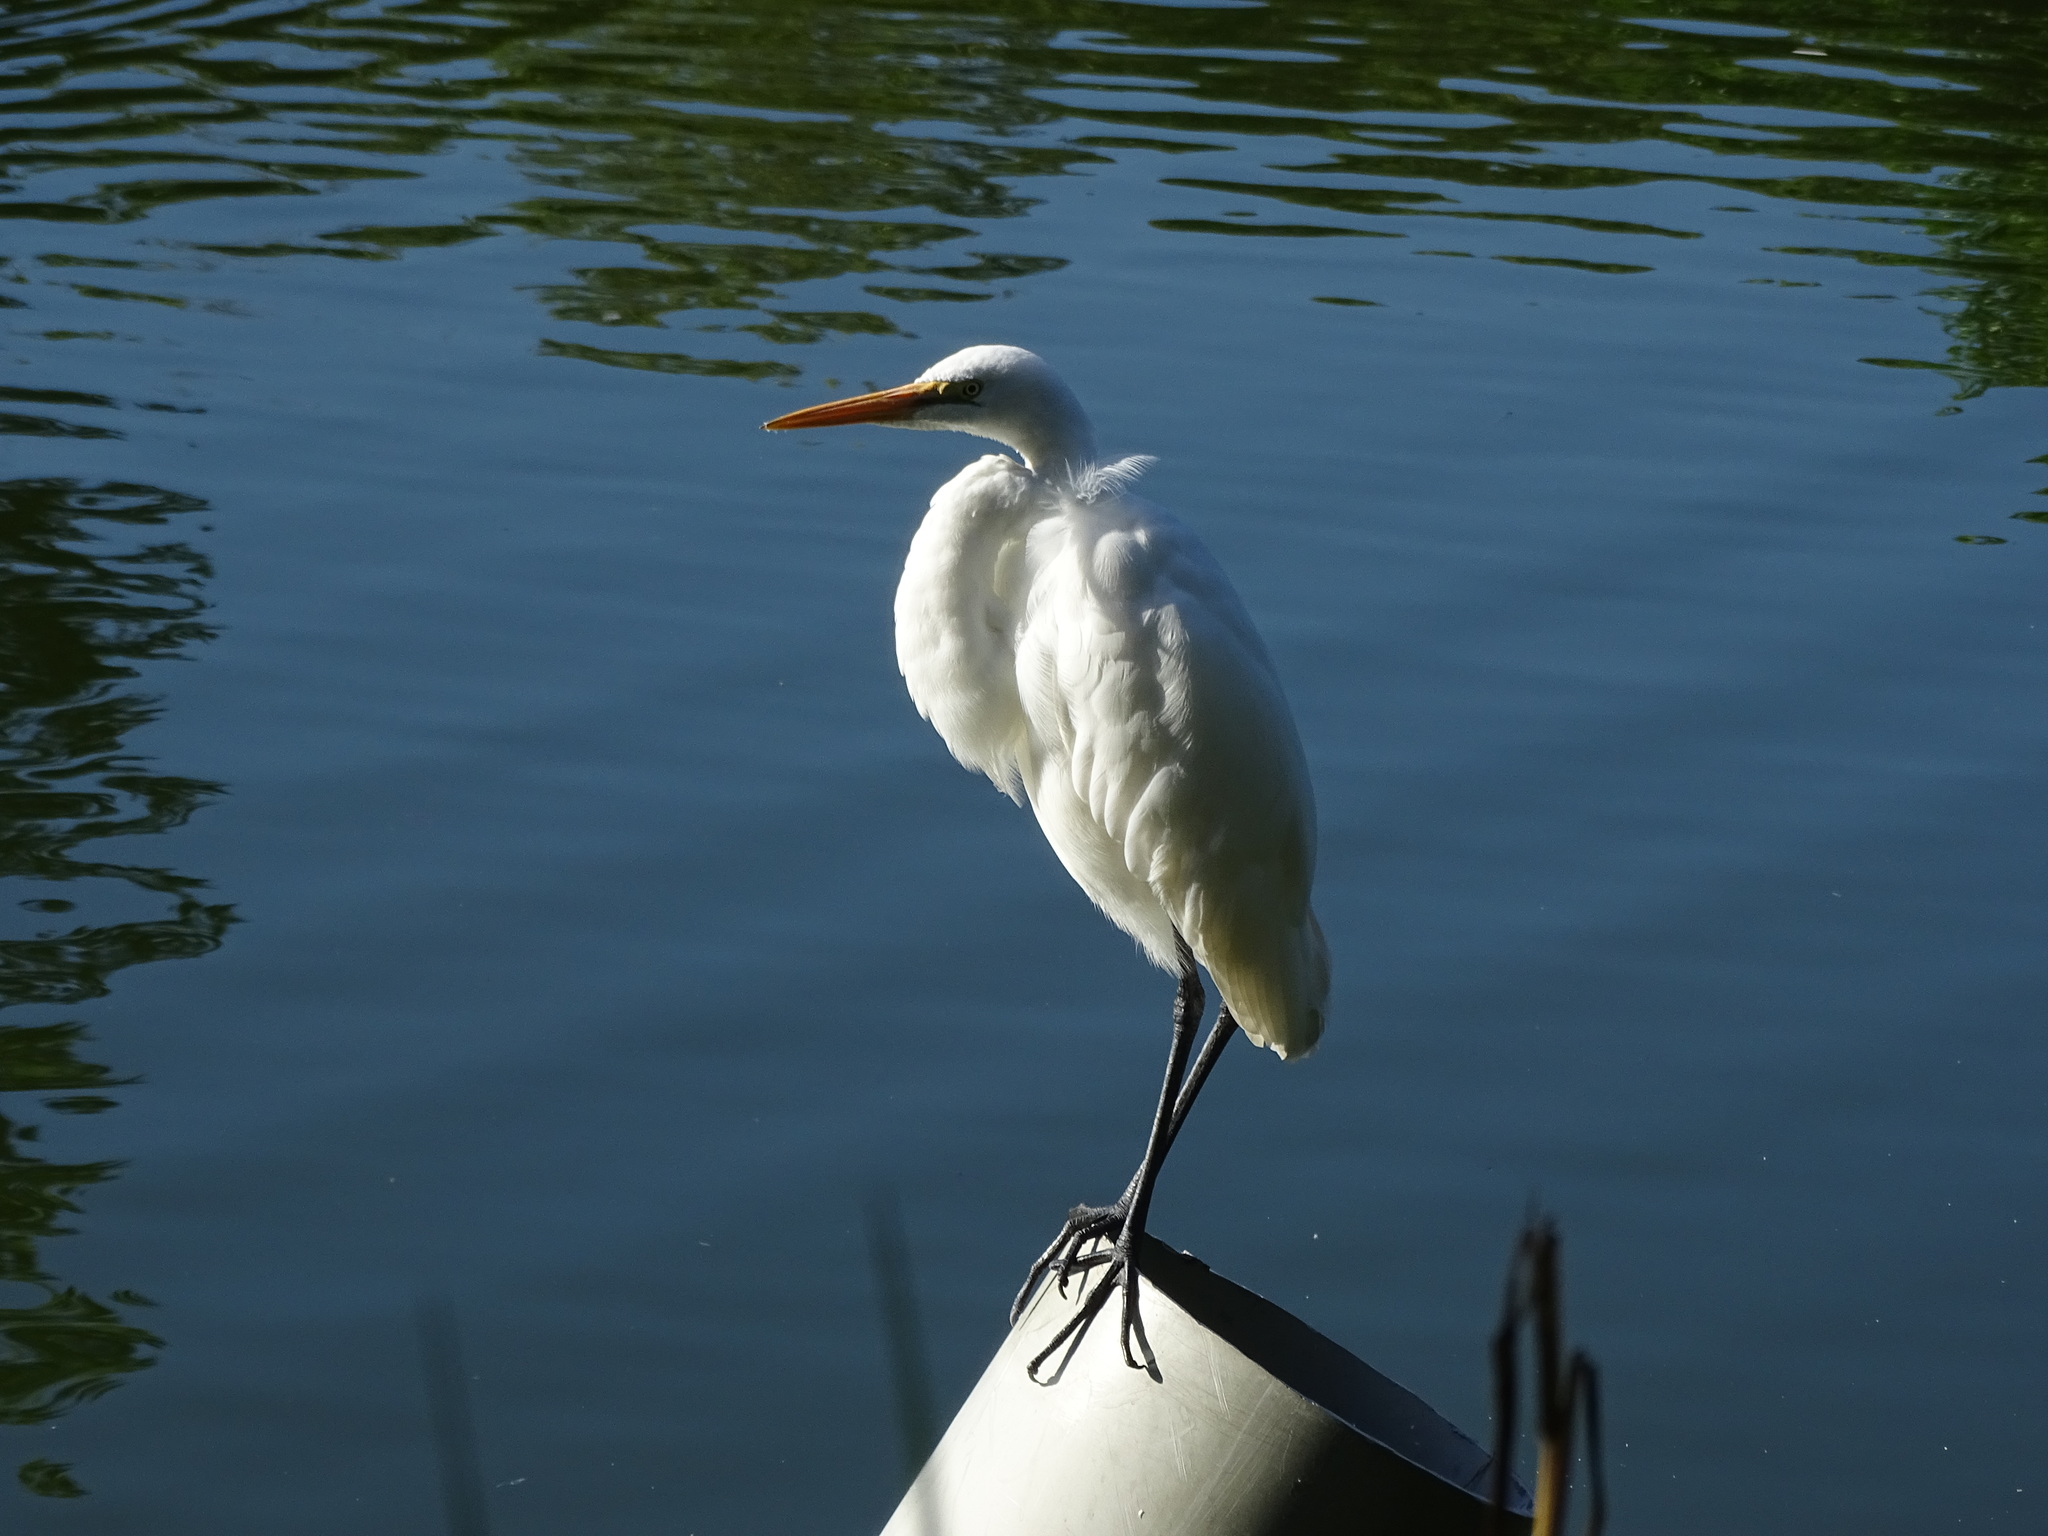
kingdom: Animalia
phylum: Chordata
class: Aves
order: Pelecaniformes
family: Ardeidae
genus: Ardea
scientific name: Ardea alba
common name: Great egret
